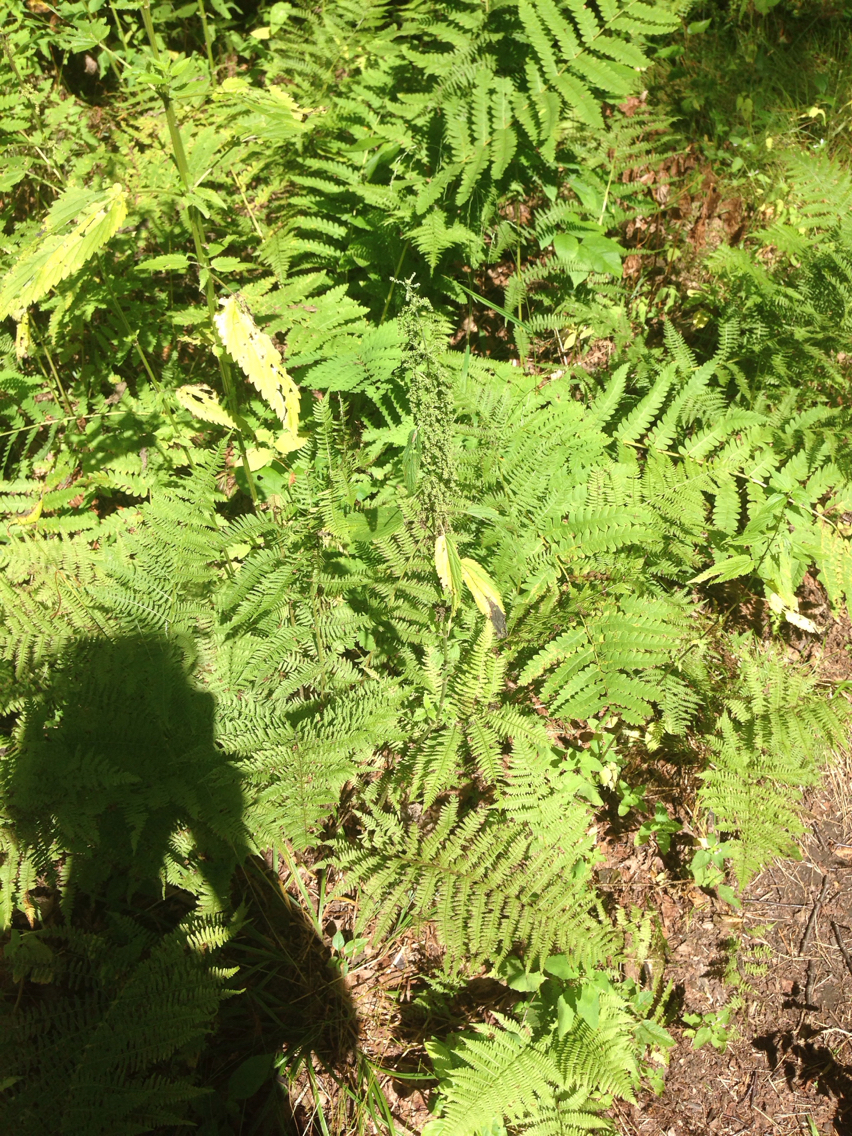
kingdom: Plantae
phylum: Tracheophyta
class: Magnoliopsida
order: Rosales
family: Urticaceae
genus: Urtica
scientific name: Urtica dioica
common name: Common nettle
